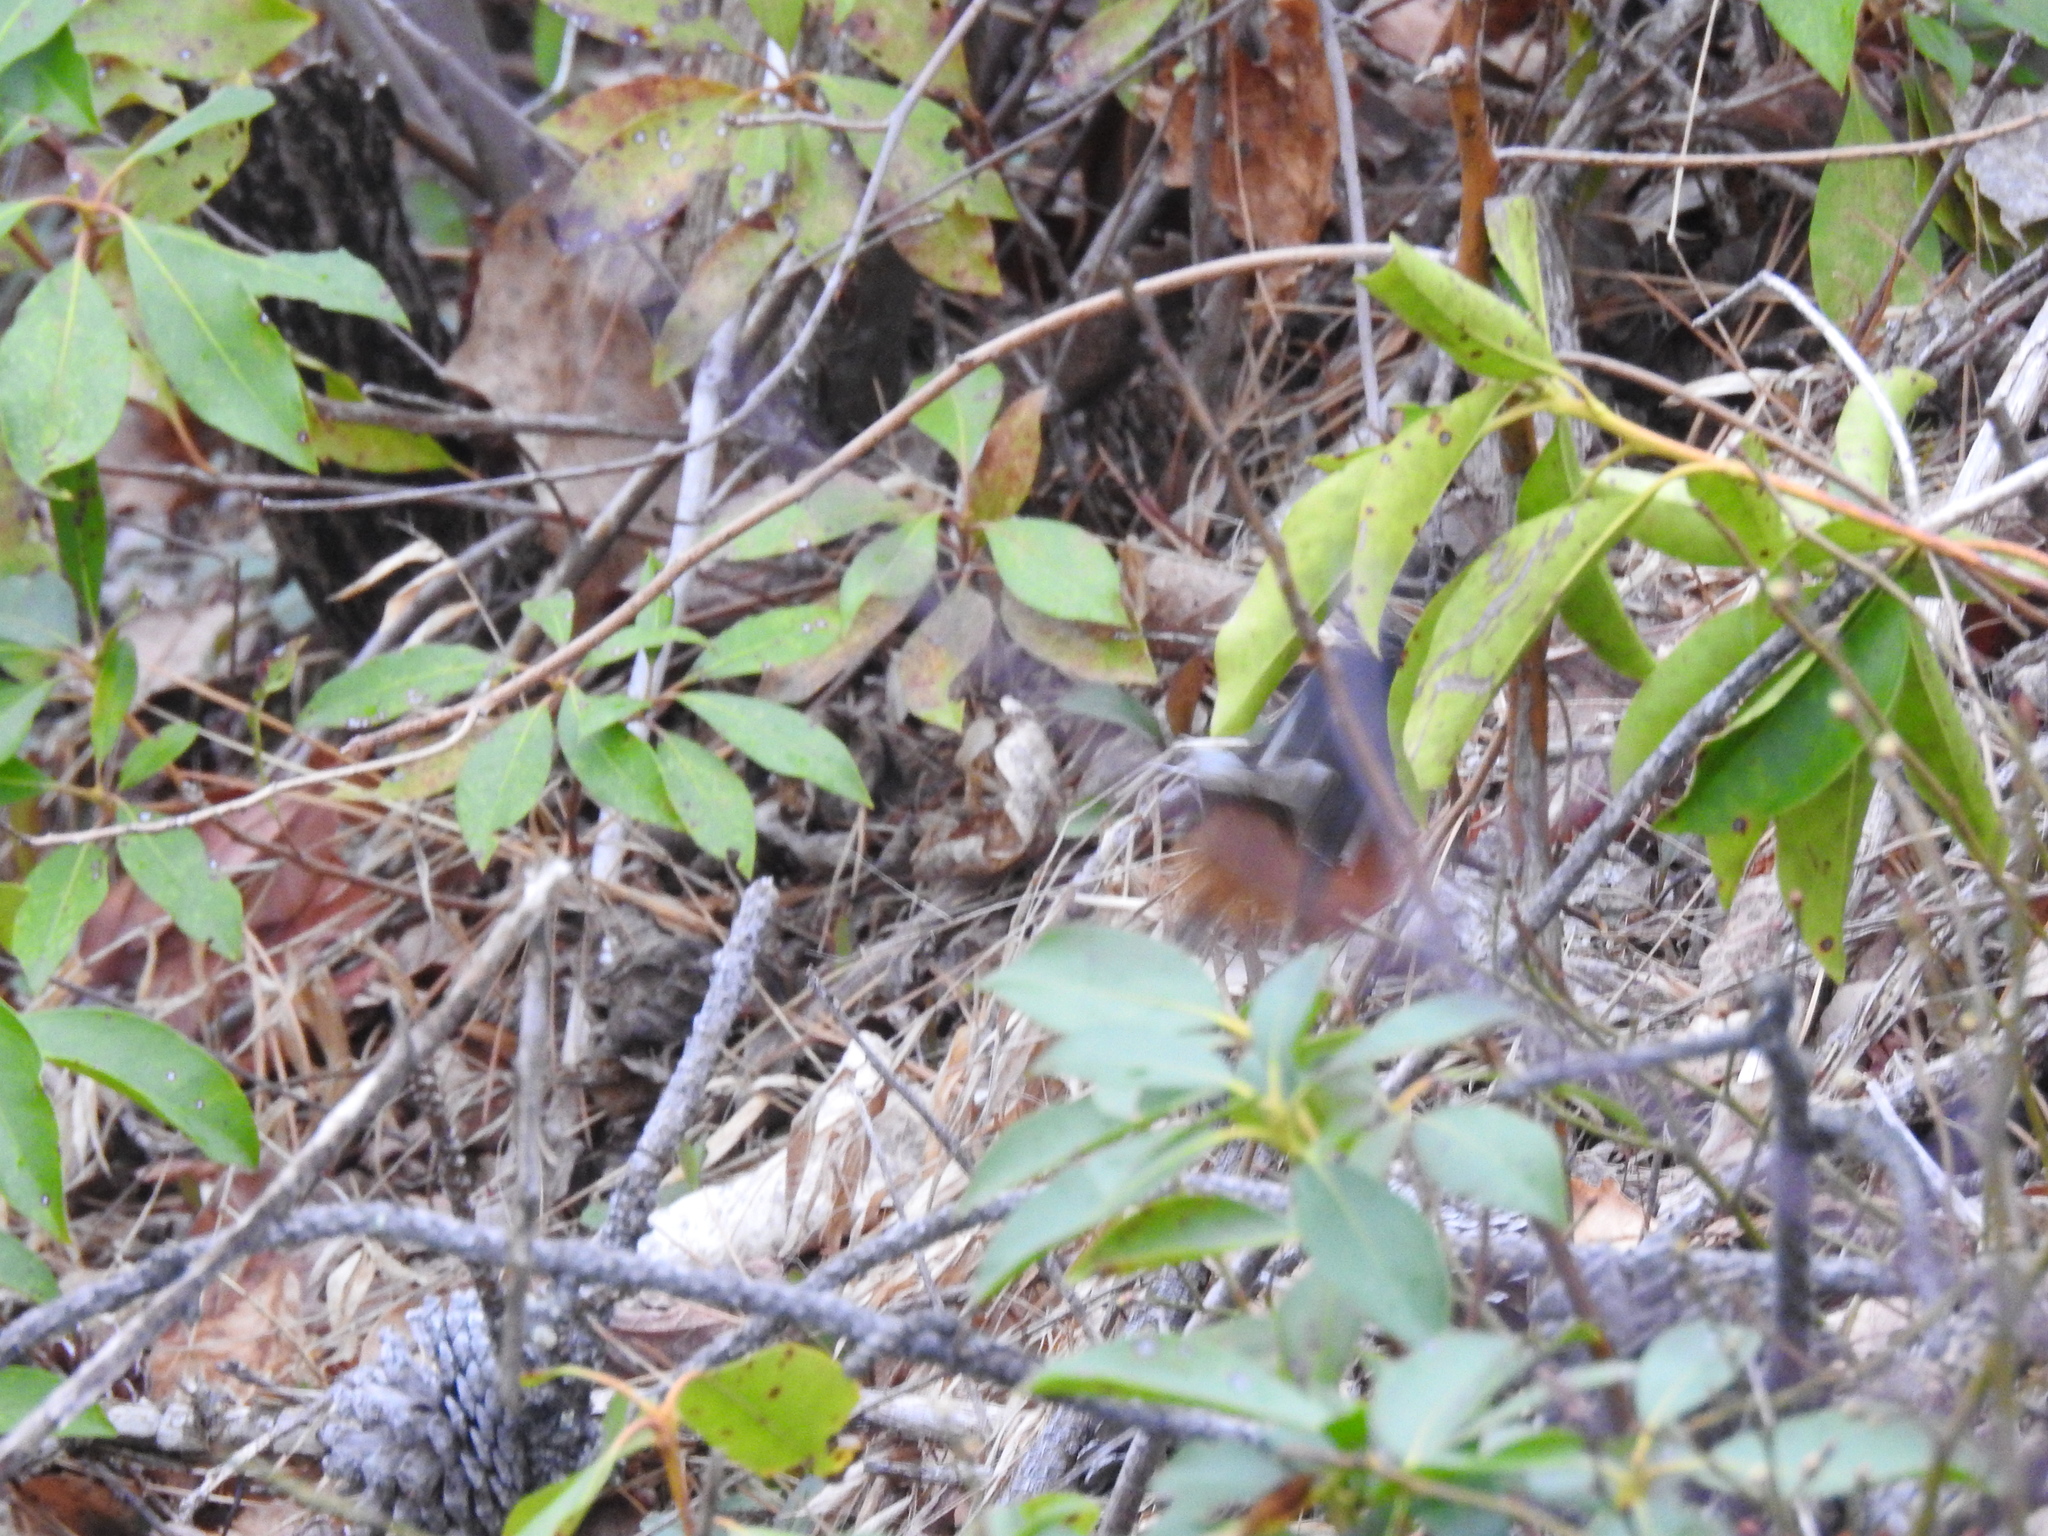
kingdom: Animalia
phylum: Chordata
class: Aves
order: Passeriformes
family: Passerellidae
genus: Pipilo
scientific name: Pipilo erythrophthalmus
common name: Eastern towhee
